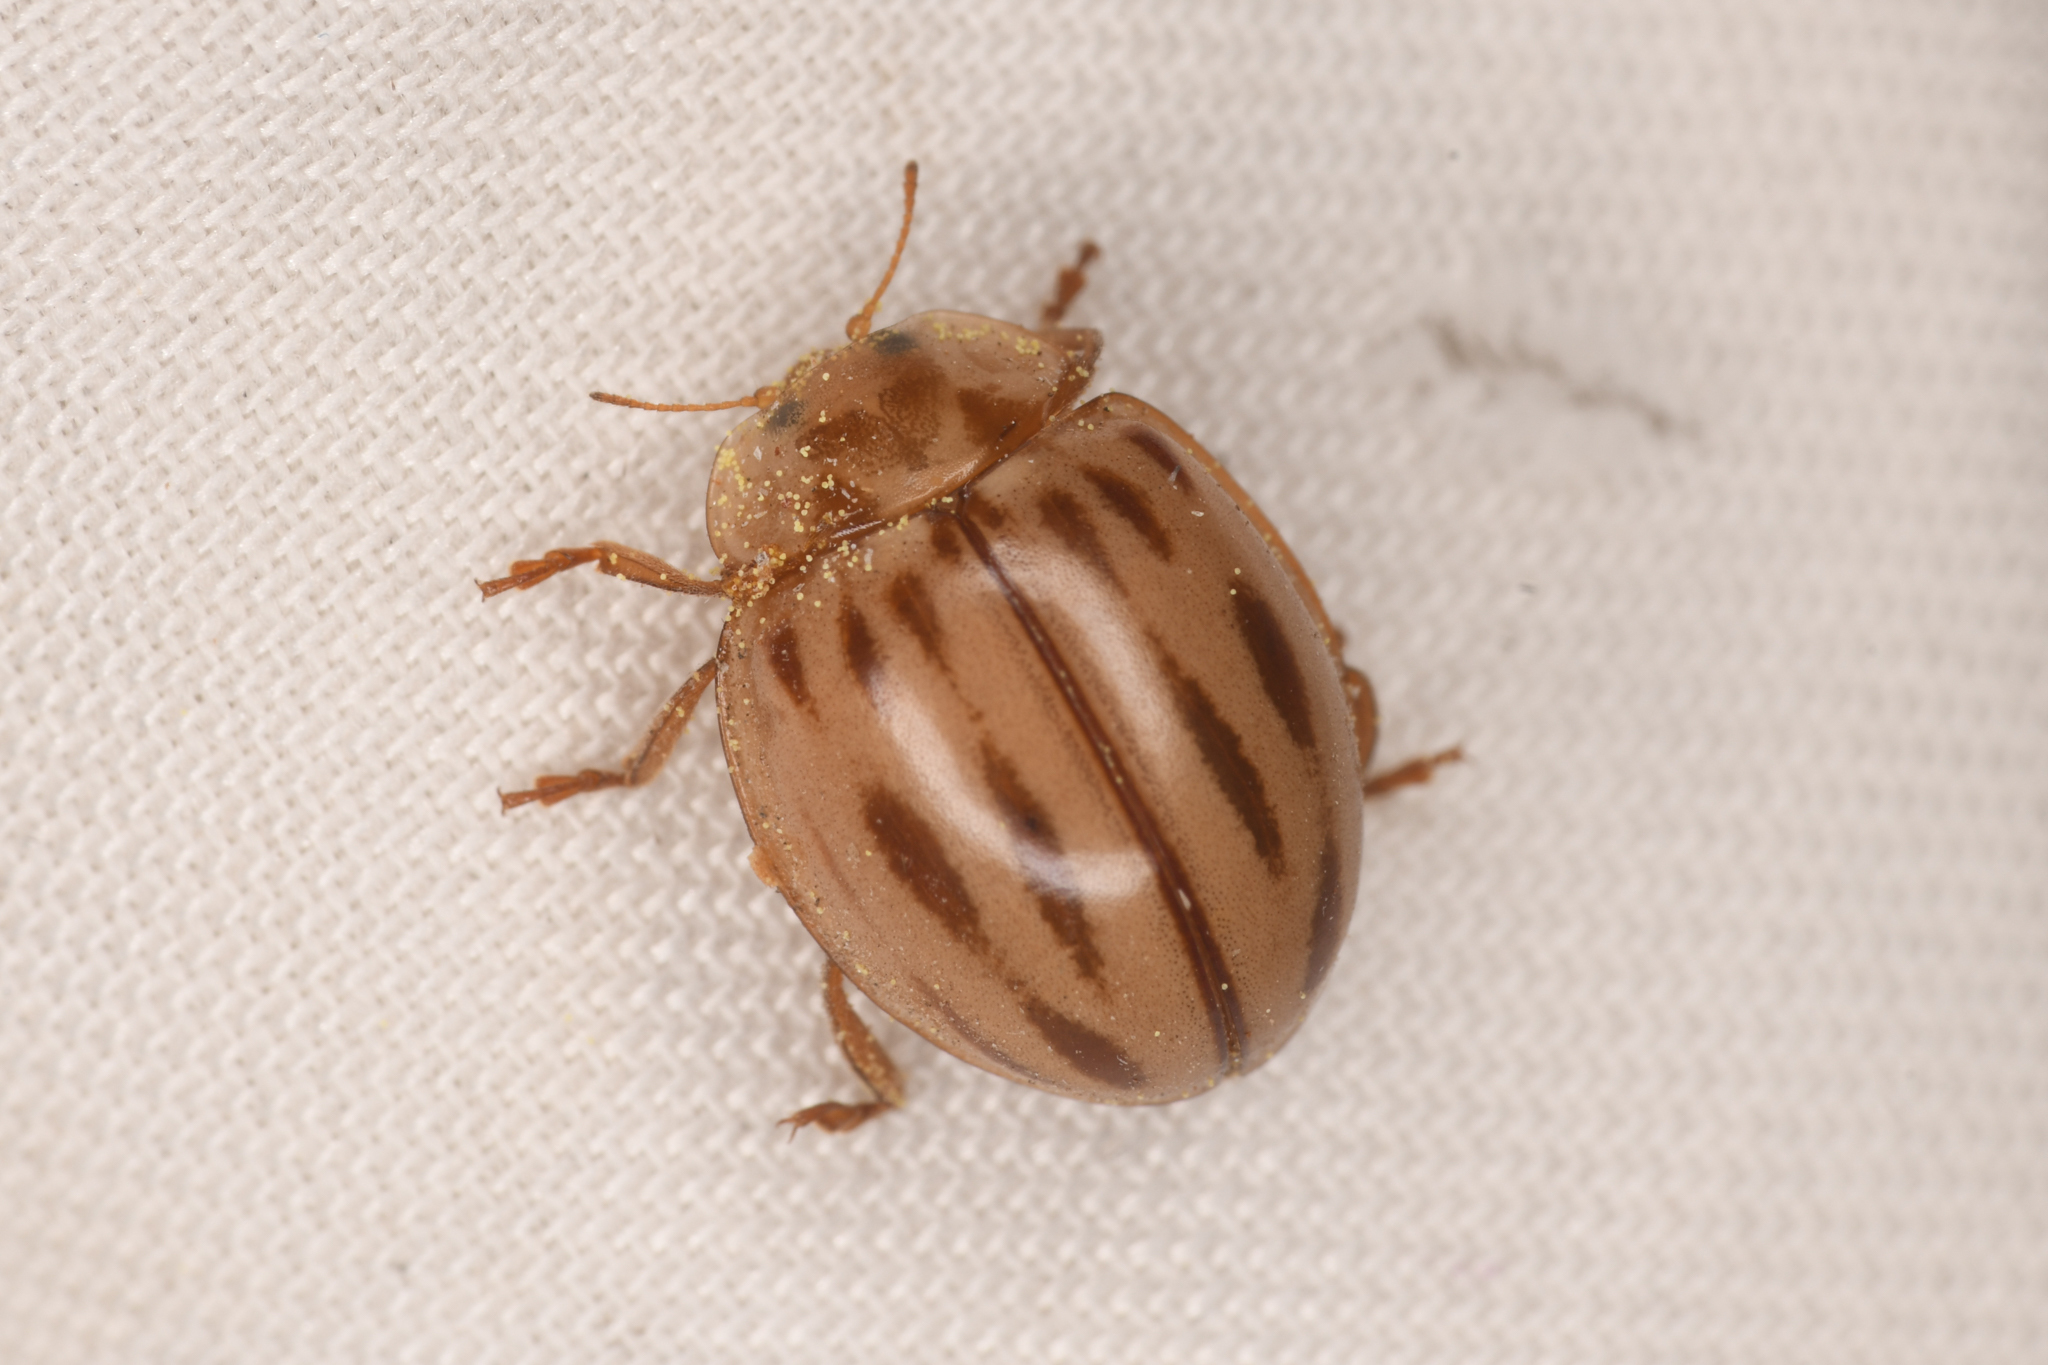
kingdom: Animalia
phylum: Arthropoda
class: Insecta
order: Coleoptera
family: Coccinellidae
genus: Myzia
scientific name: Myzia interrupta
